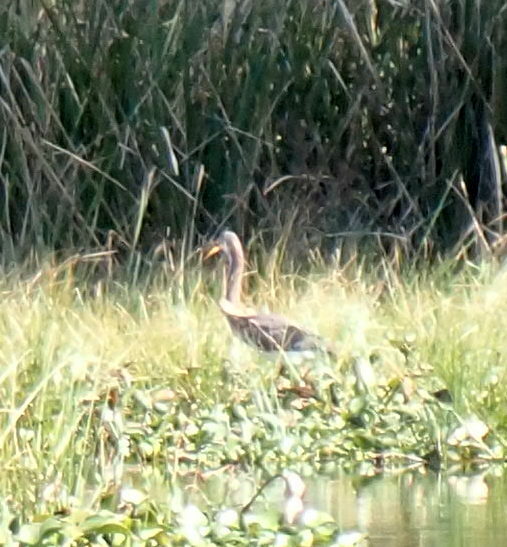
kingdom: Animalia
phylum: Chordata
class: Aves
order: Gruiformes
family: Aramidae
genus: Aramus
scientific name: Aramus guarauna
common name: Limpkin
